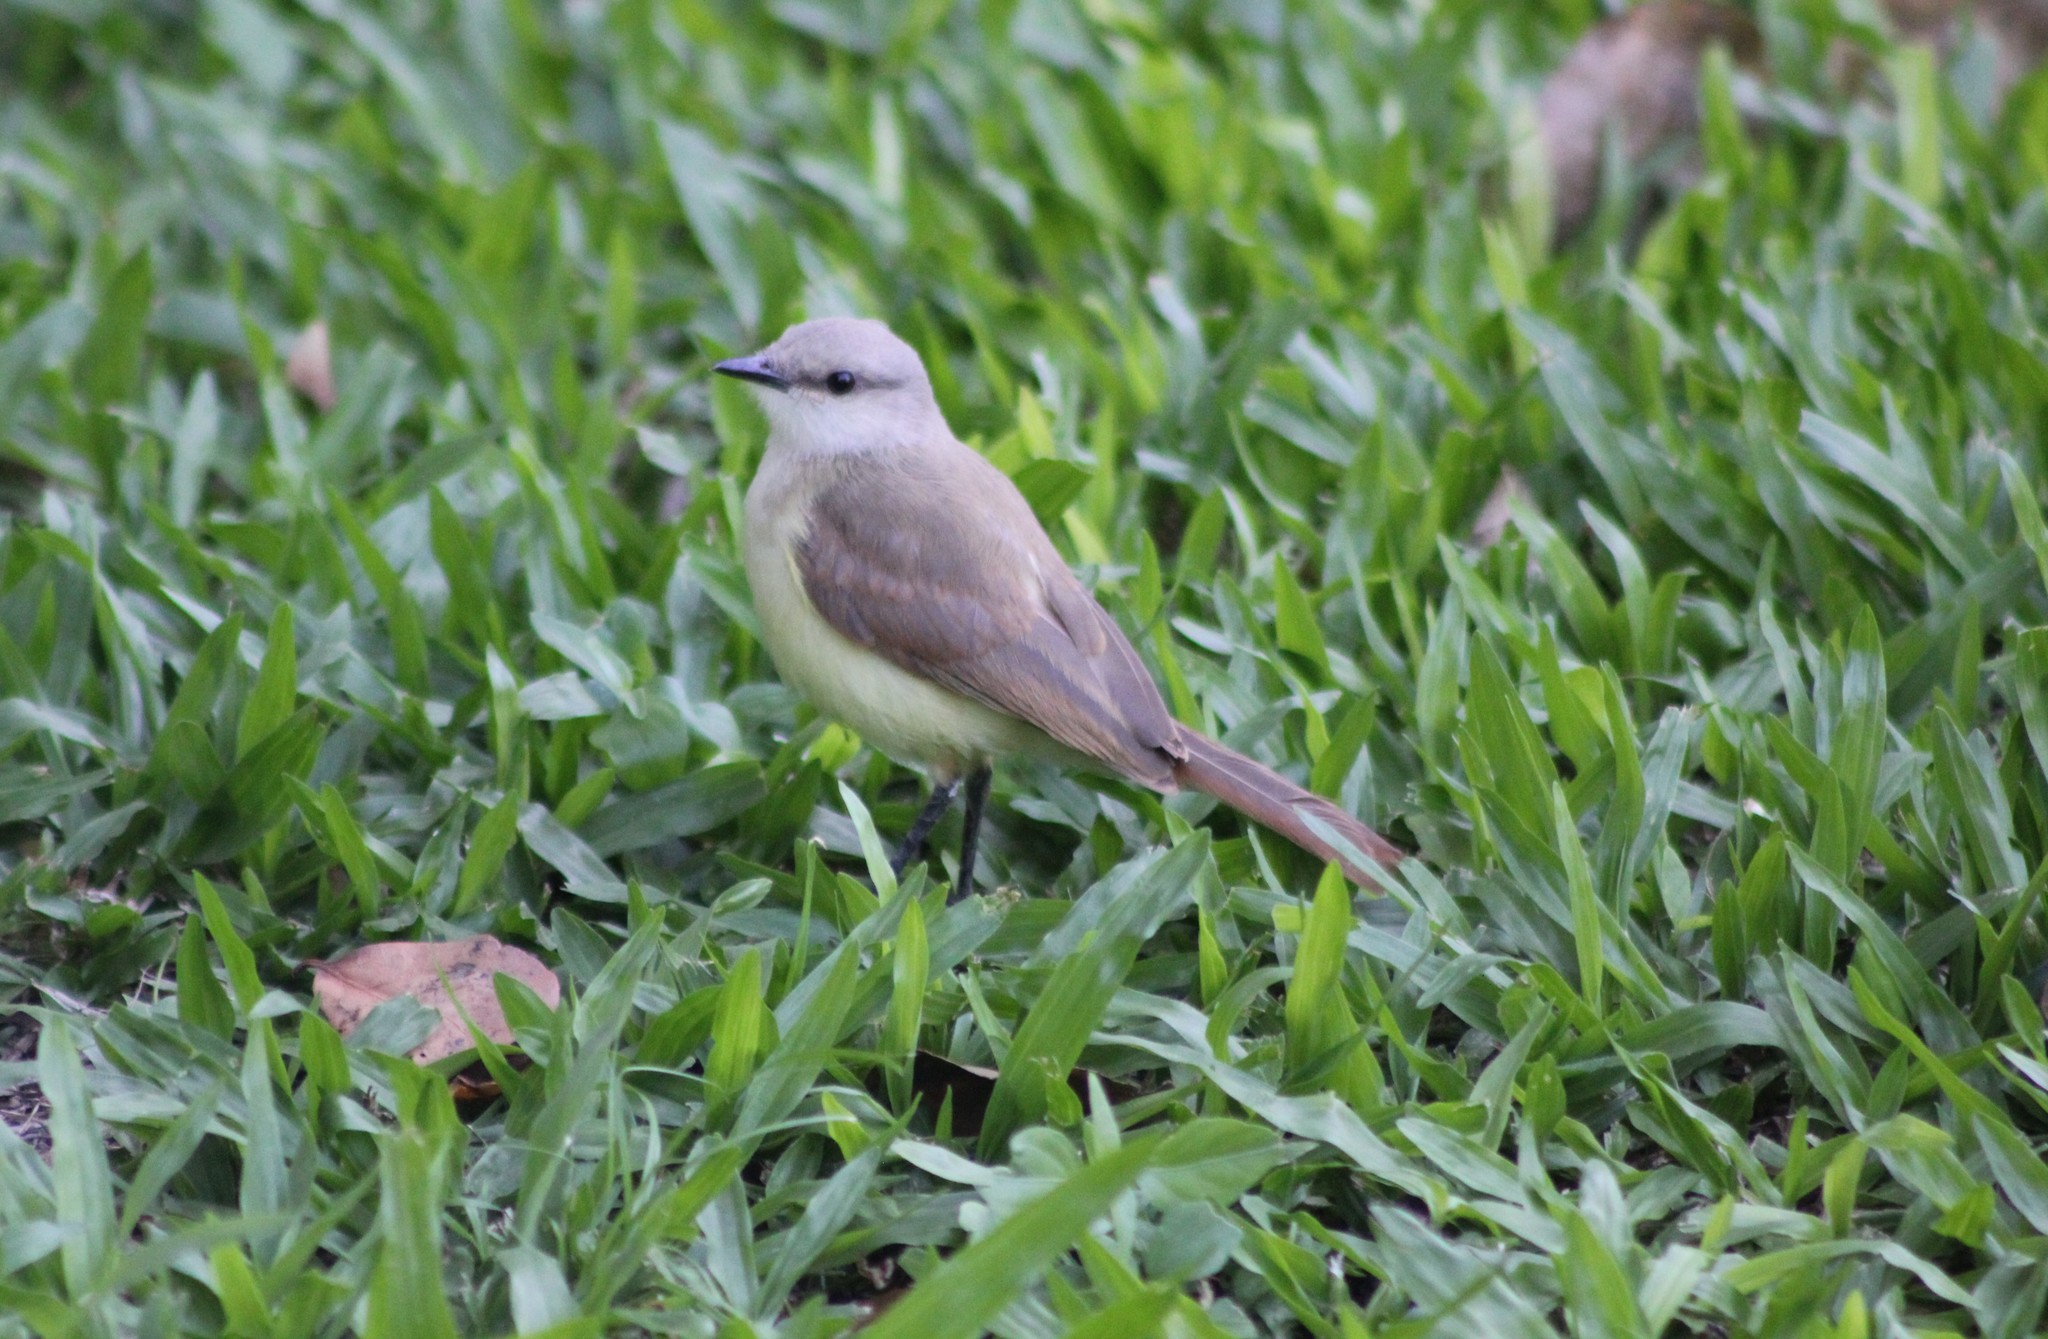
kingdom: Animalia
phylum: Chordata
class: Aves
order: Passeriformes
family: Tyrannidae
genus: Machetornis
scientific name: Machetornis rixosa
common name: Cattle tyrant
